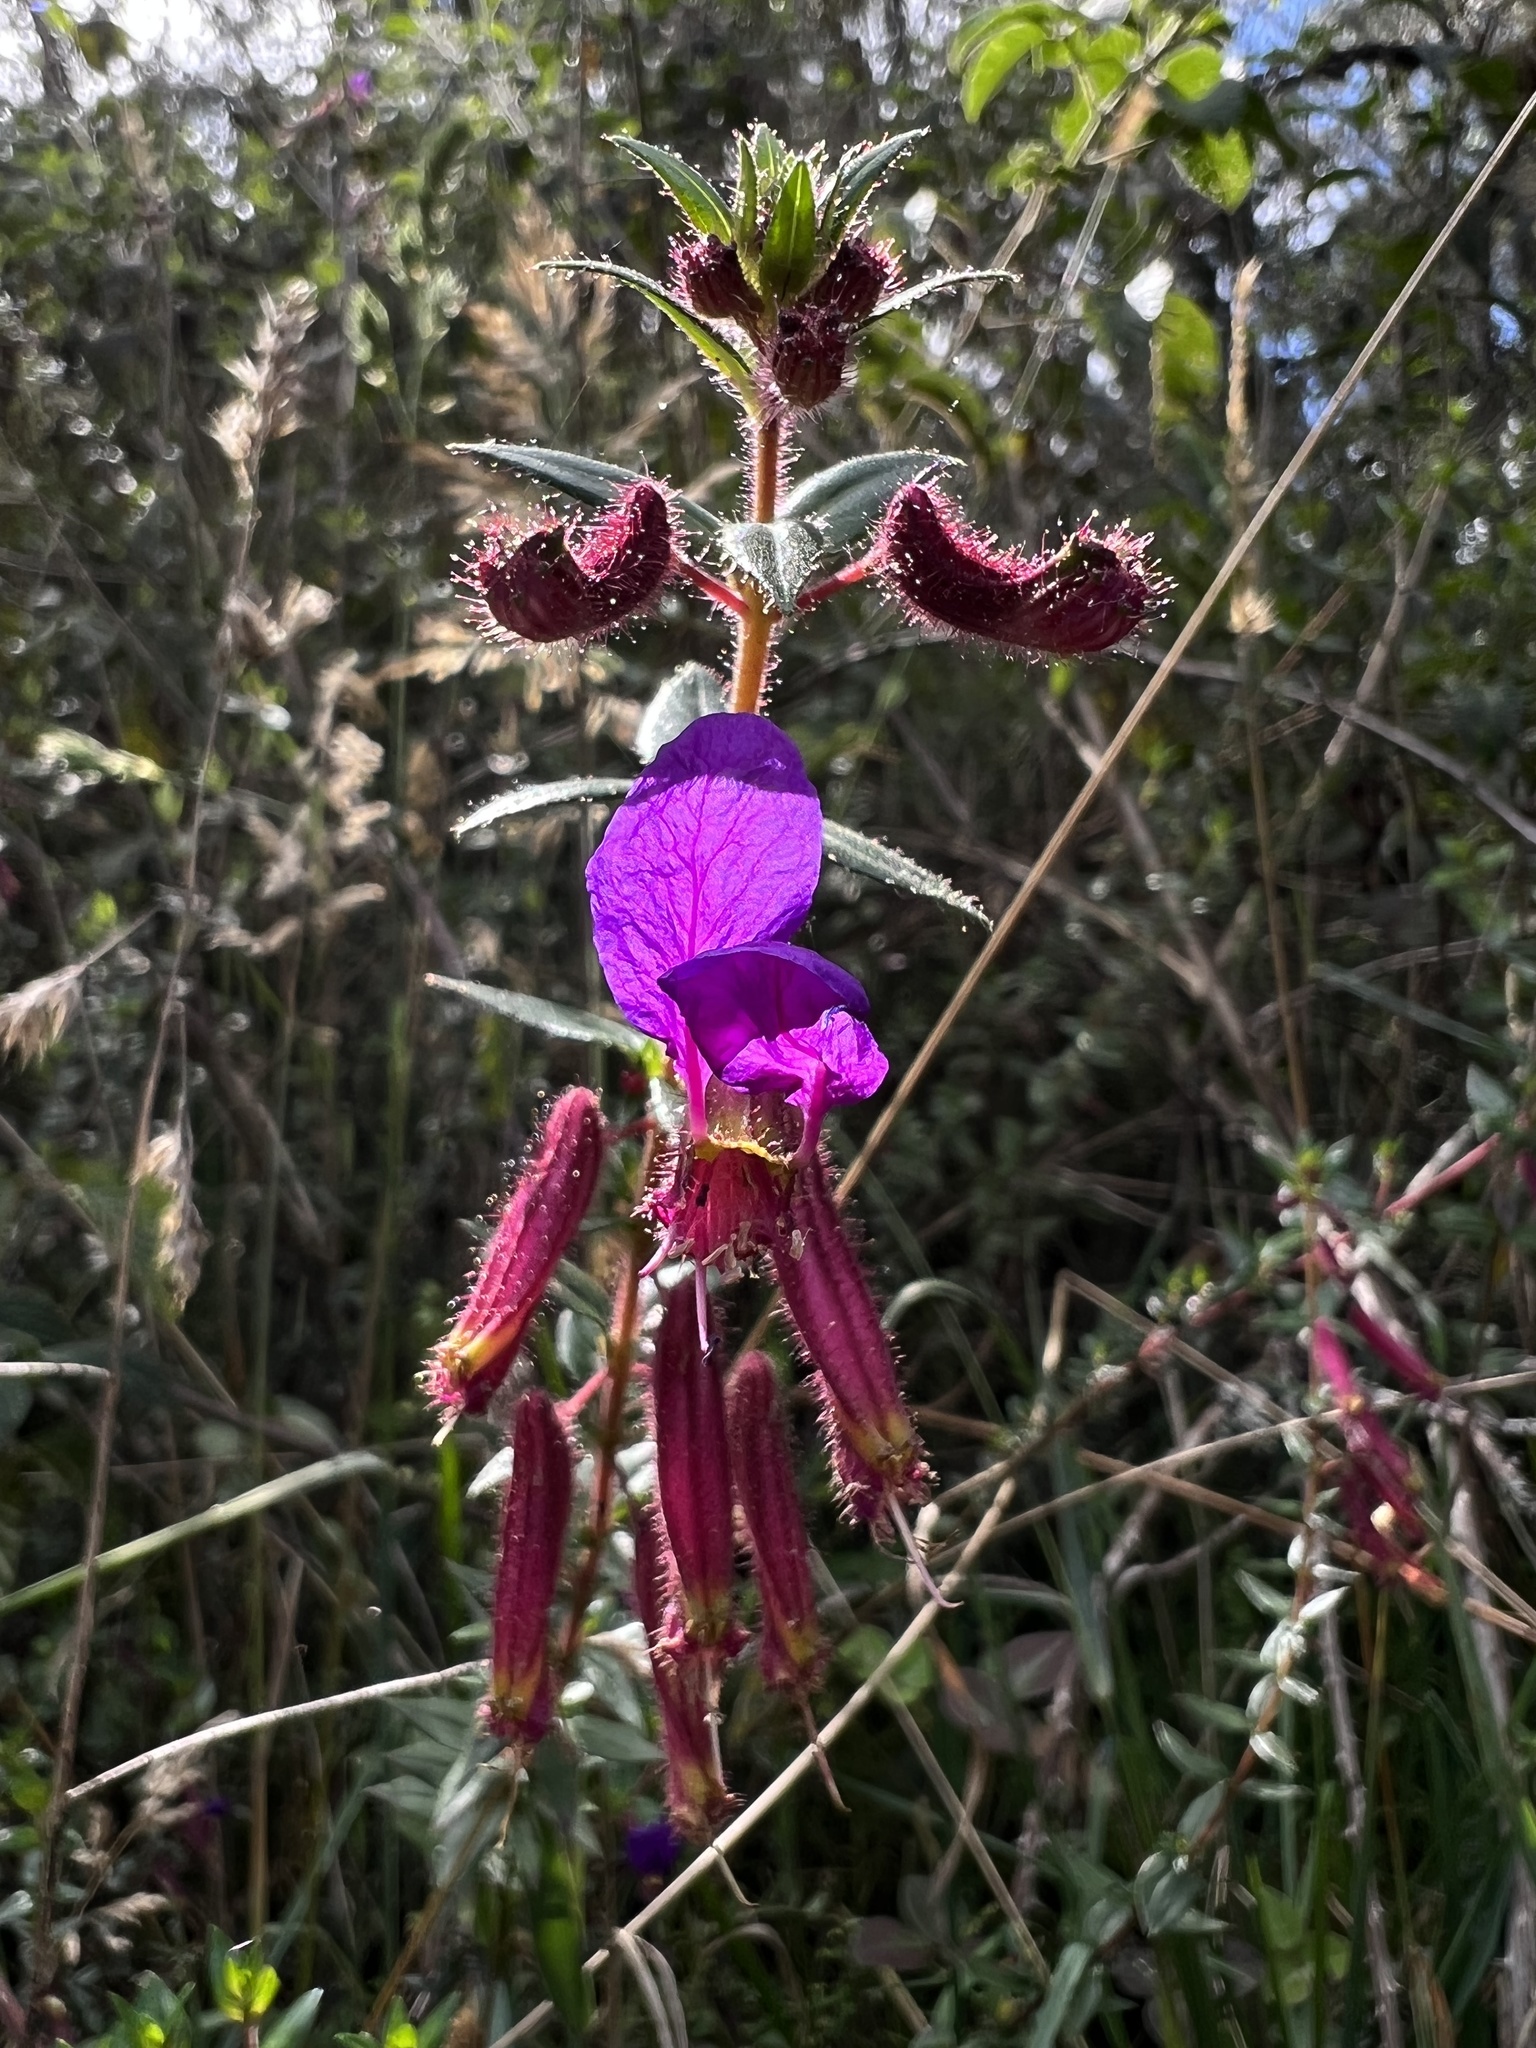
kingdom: Plantae
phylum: Tracheophyta
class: Magnoliopsida
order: Myrtales
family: Lythraceae
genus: Cuphea
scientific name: Cuphea dipetala
